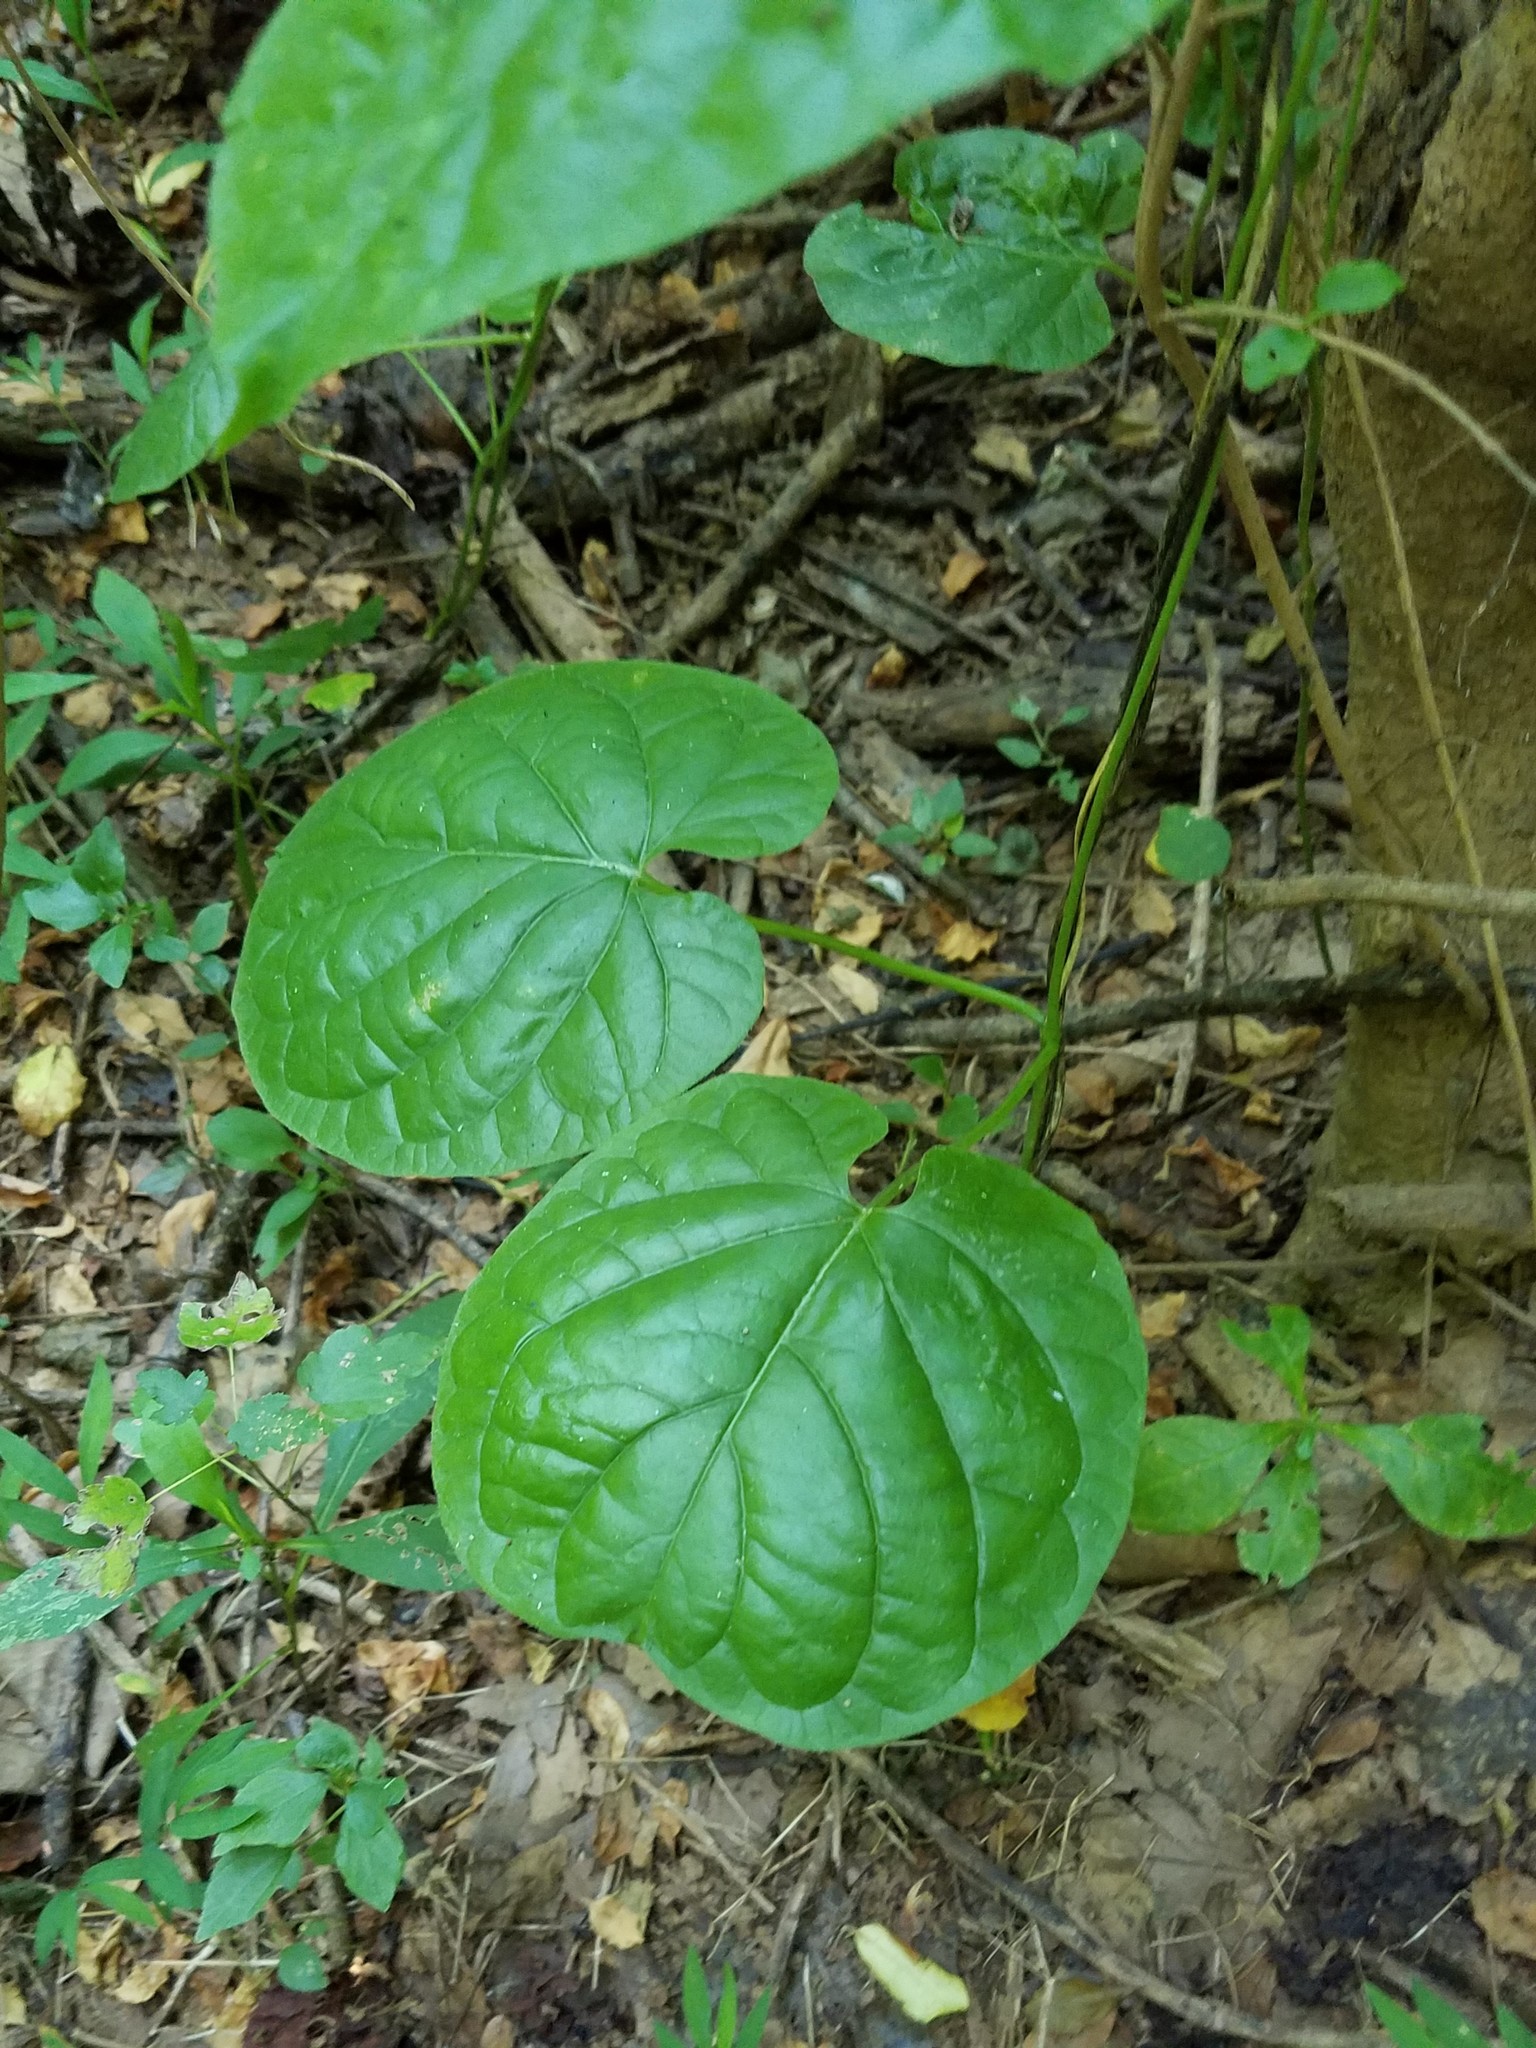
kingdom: Plantae
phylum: Tracheophyta
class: Magnoliopsida
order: Gentianales
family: Apocynaceae
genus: Matelea
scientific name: Matelea carolinensis
